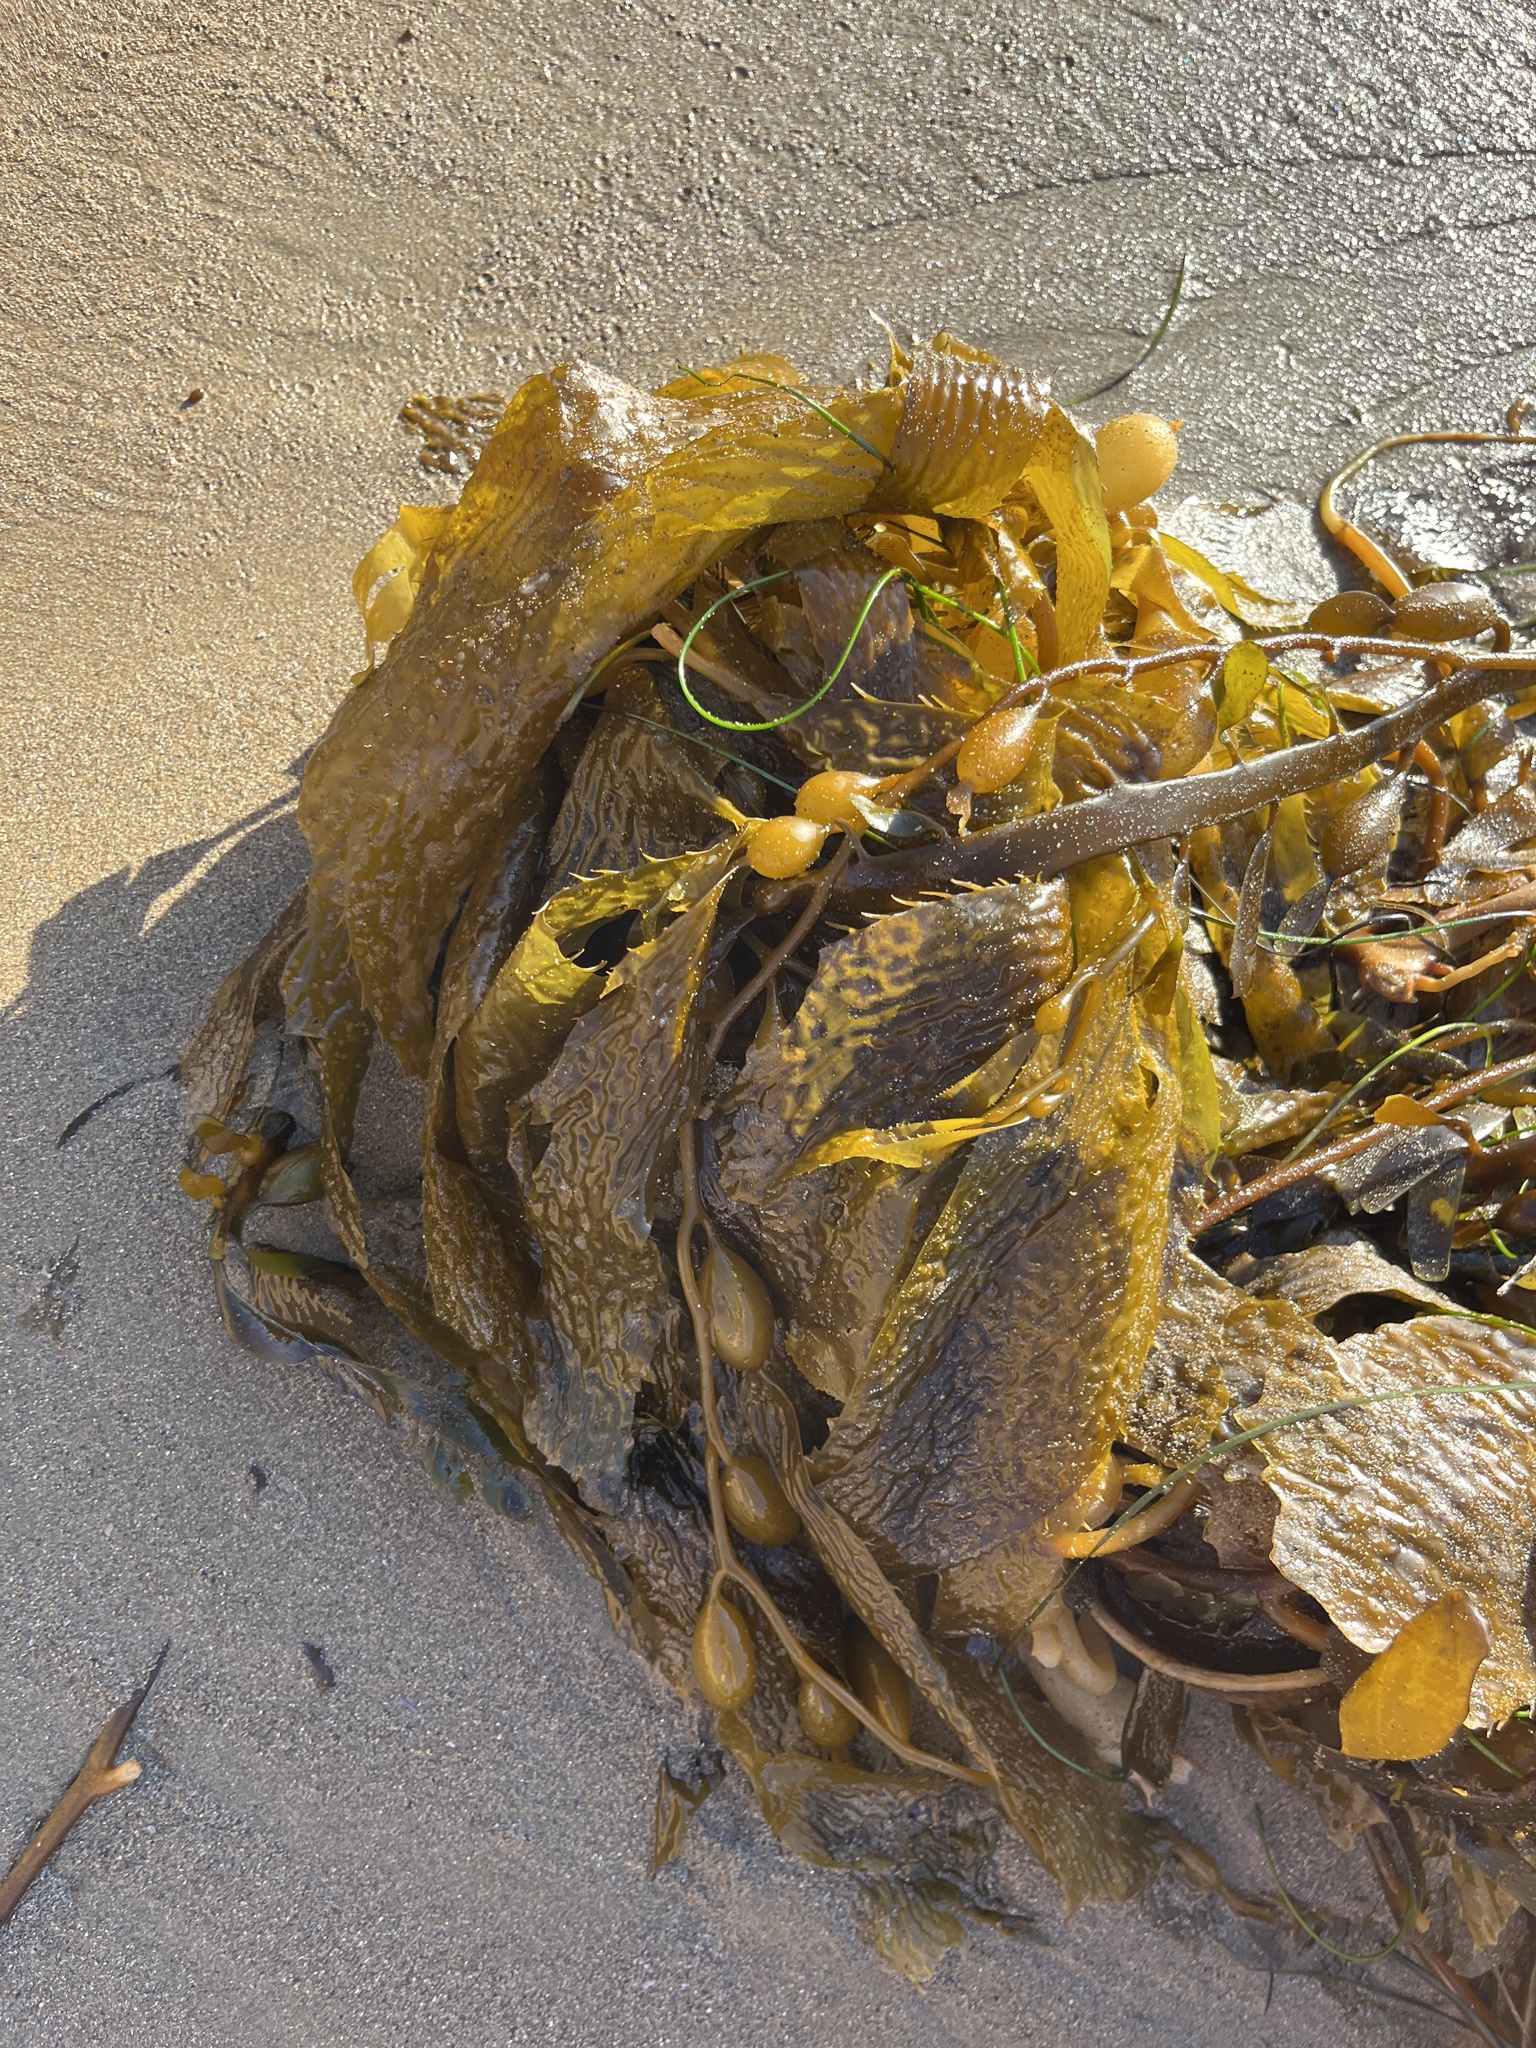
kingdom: Chromista
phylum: Ochrophyta
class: Phaeophyceae
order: Laminariales
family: Laminariaceae
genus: Macrocystis
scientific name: Macrocystis pyrifera
